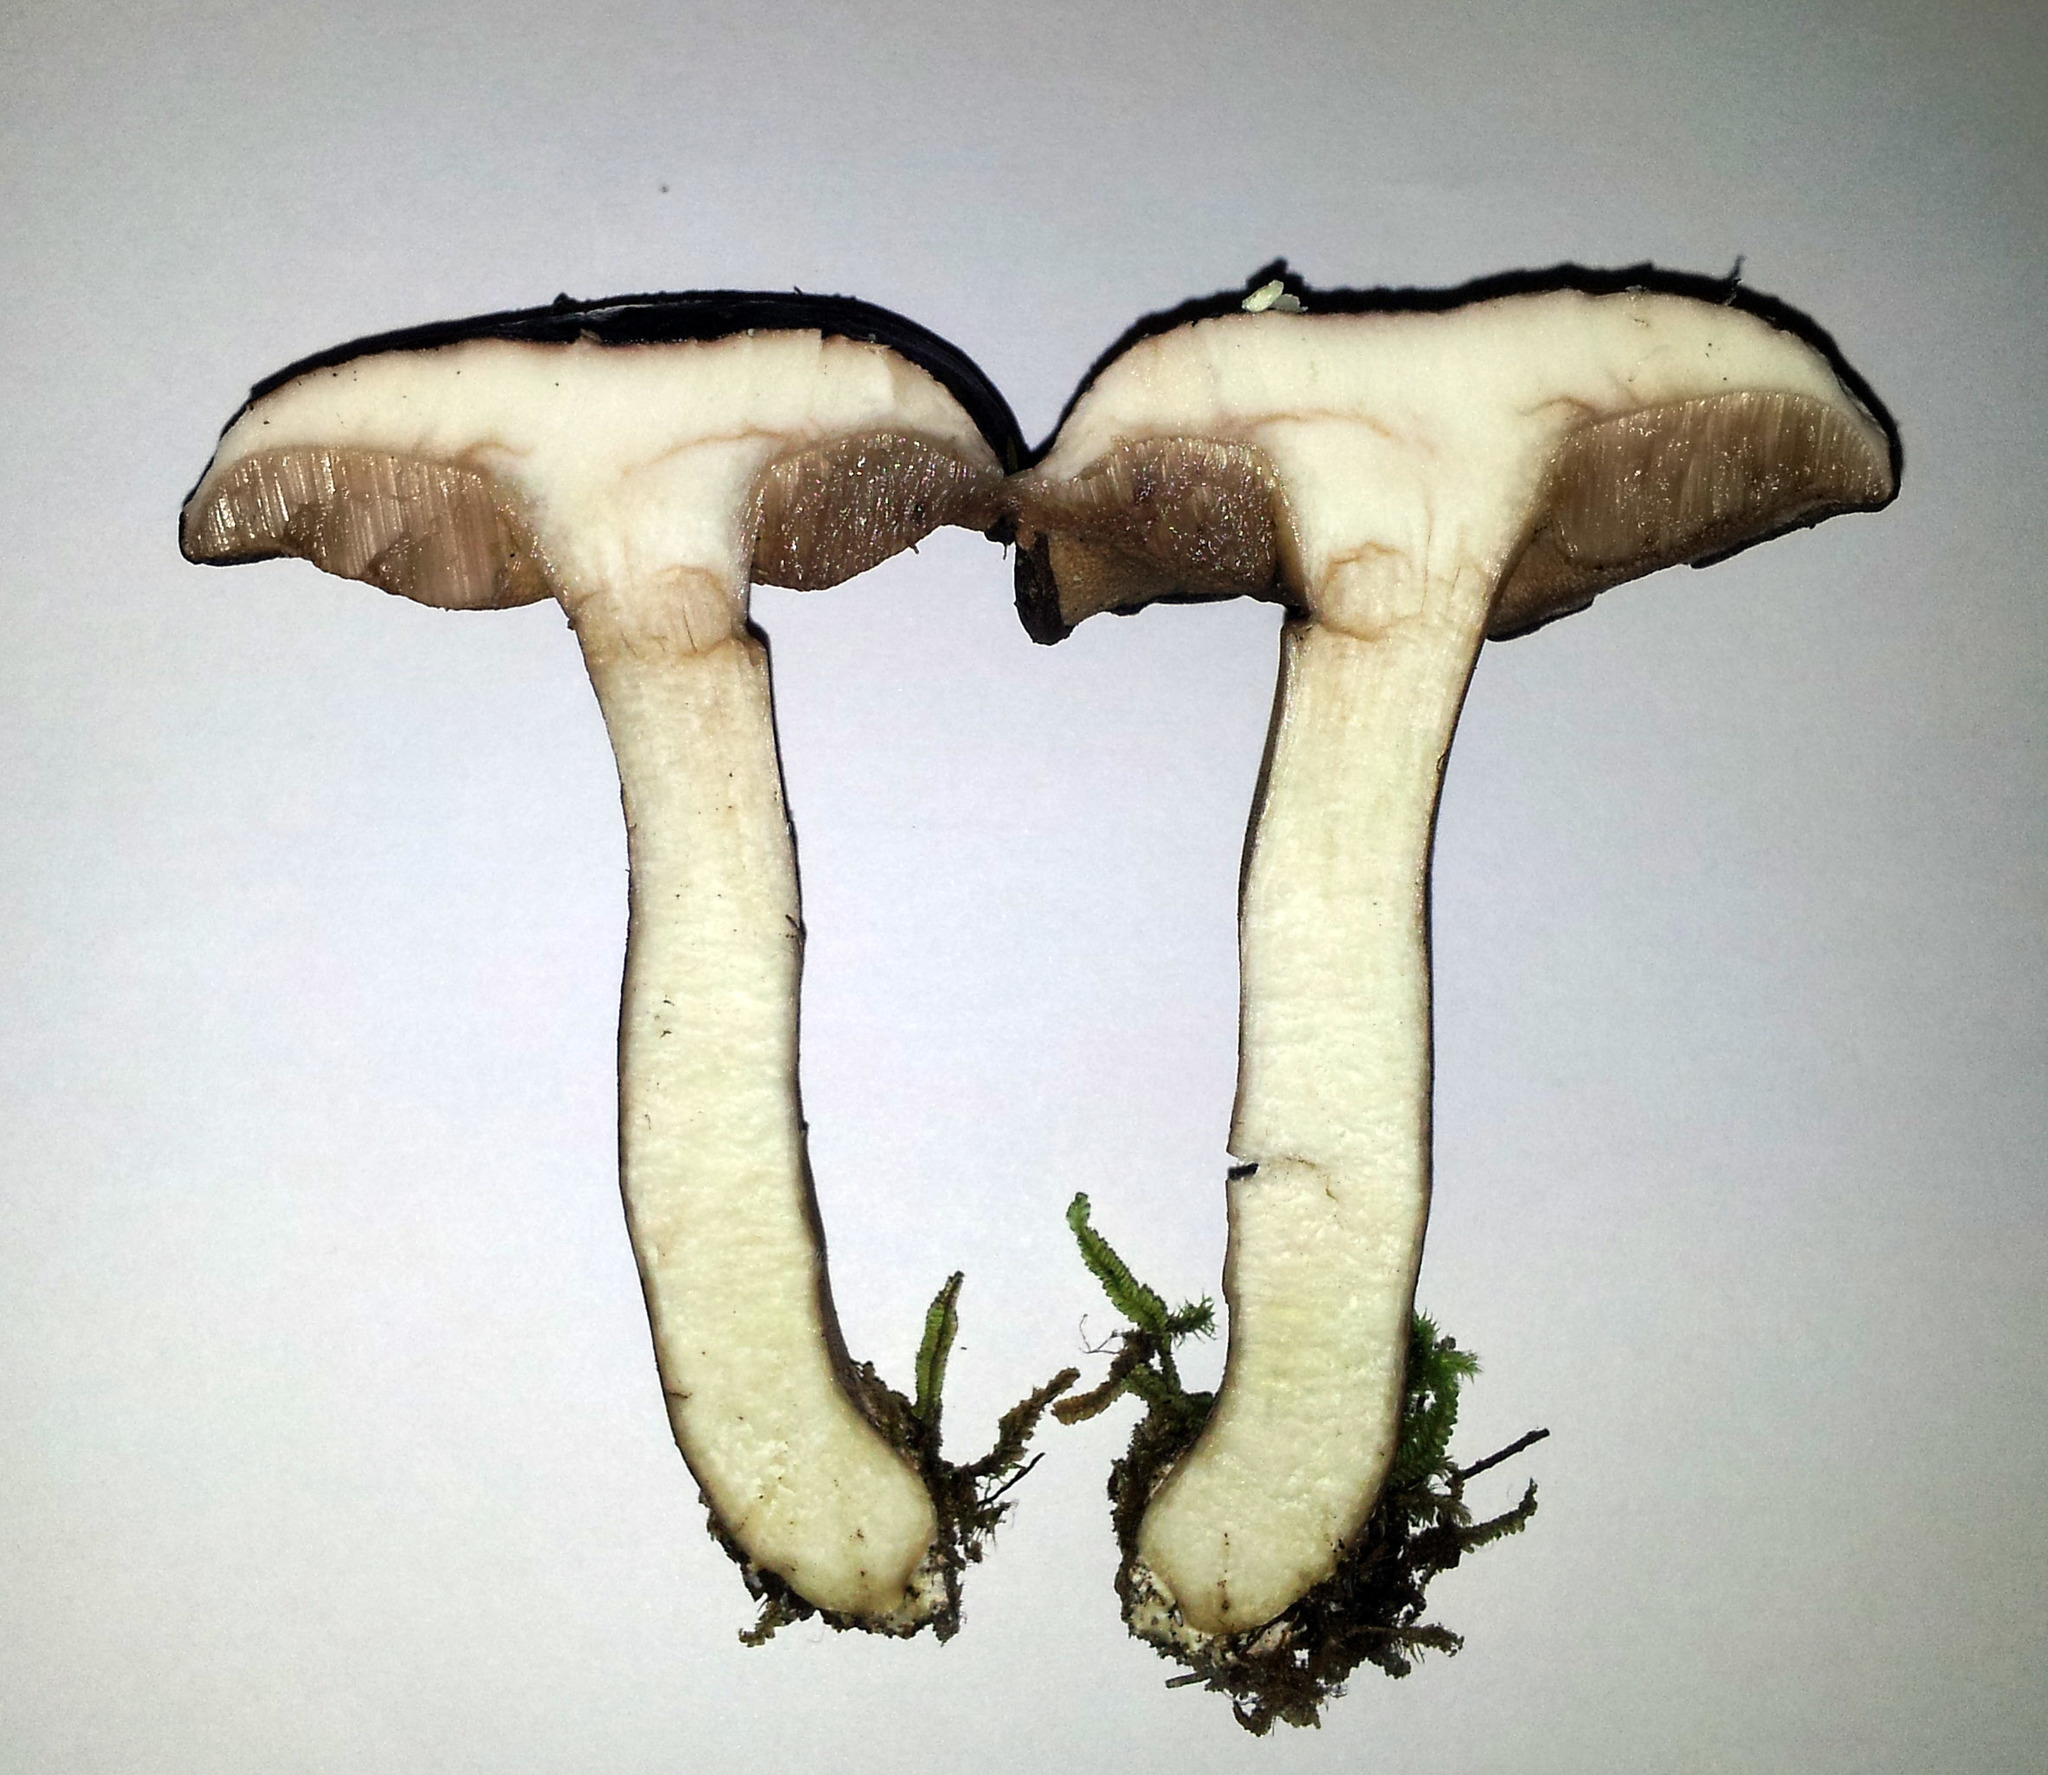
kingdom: Fungi
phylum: Basidiomycota
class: Agaricomycetes
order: Boletales
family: Boletaceae
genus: Porphyrellus
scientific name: Porphyrellus formosus
